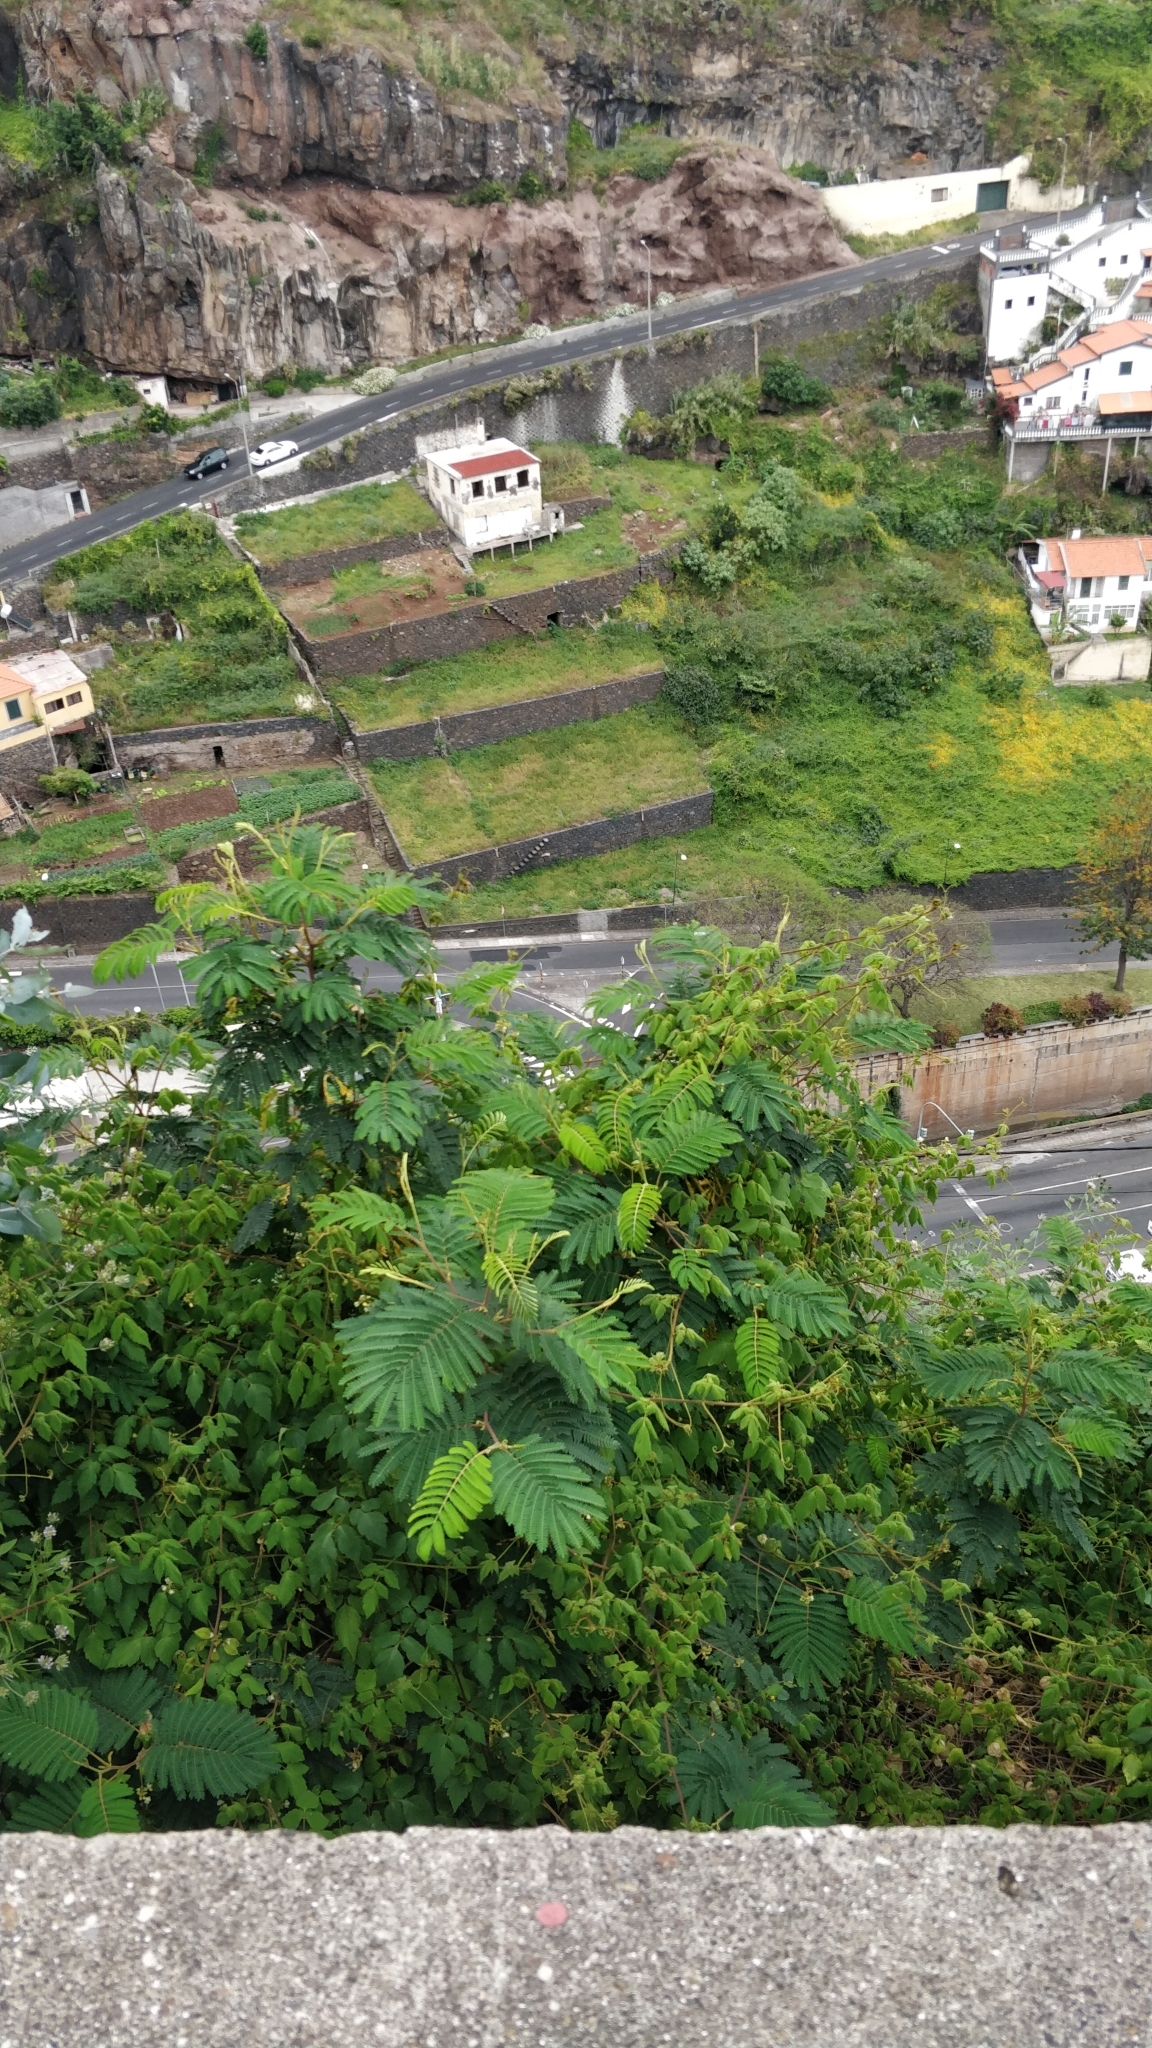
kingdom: Plantae
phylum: Tracheophyta
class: Magnoliopsida
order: Fabales
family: Fabaceae
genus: Paraserianthes
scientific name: Paraserianthes lophantha
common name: Plume albizia
